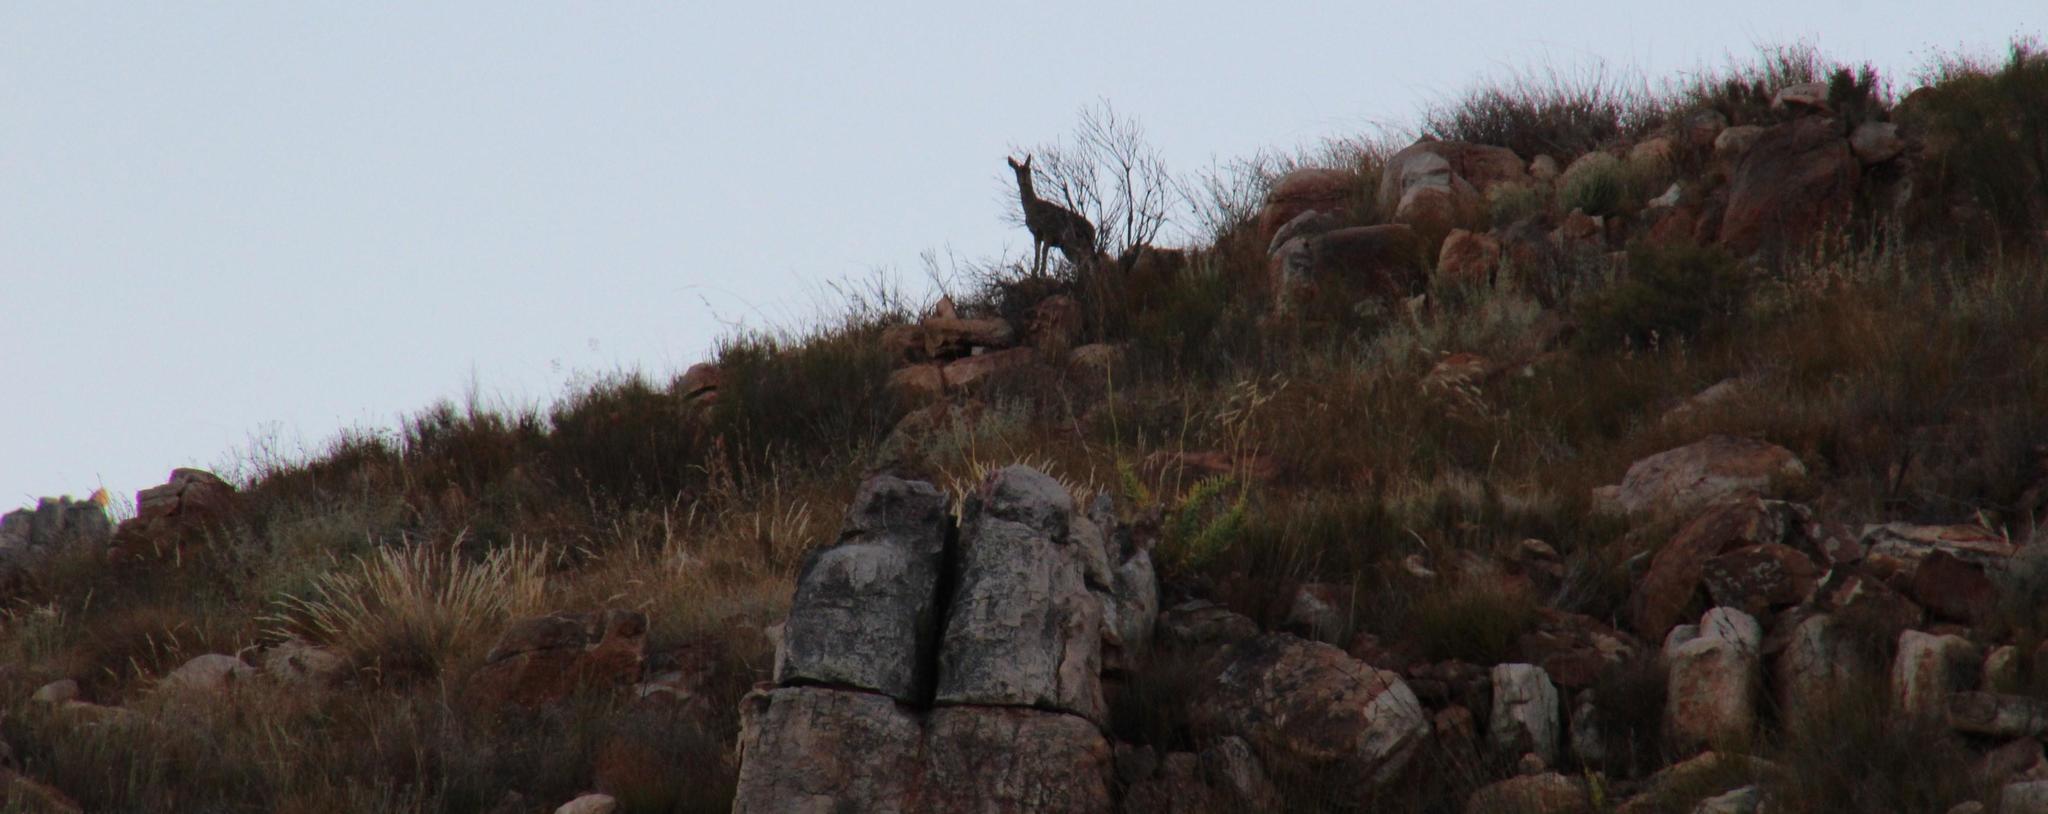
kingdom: Animalia
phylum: Chordata
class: Mammalia
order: Artiodactyla
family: Bovidae
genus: Oreotragus
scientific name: Oreotragus oreotragus
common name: Klipspringer
